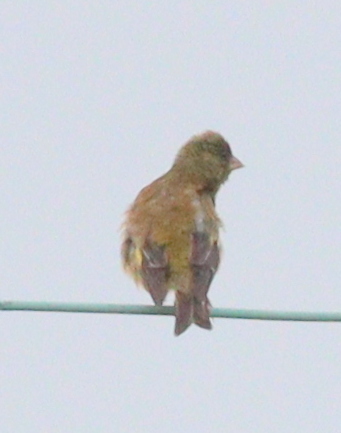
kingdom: Plantae
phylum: Tracheophyta
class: Liliopsida
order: Poales
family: Poaceae
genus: Chloris
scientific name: Chloris sinica
